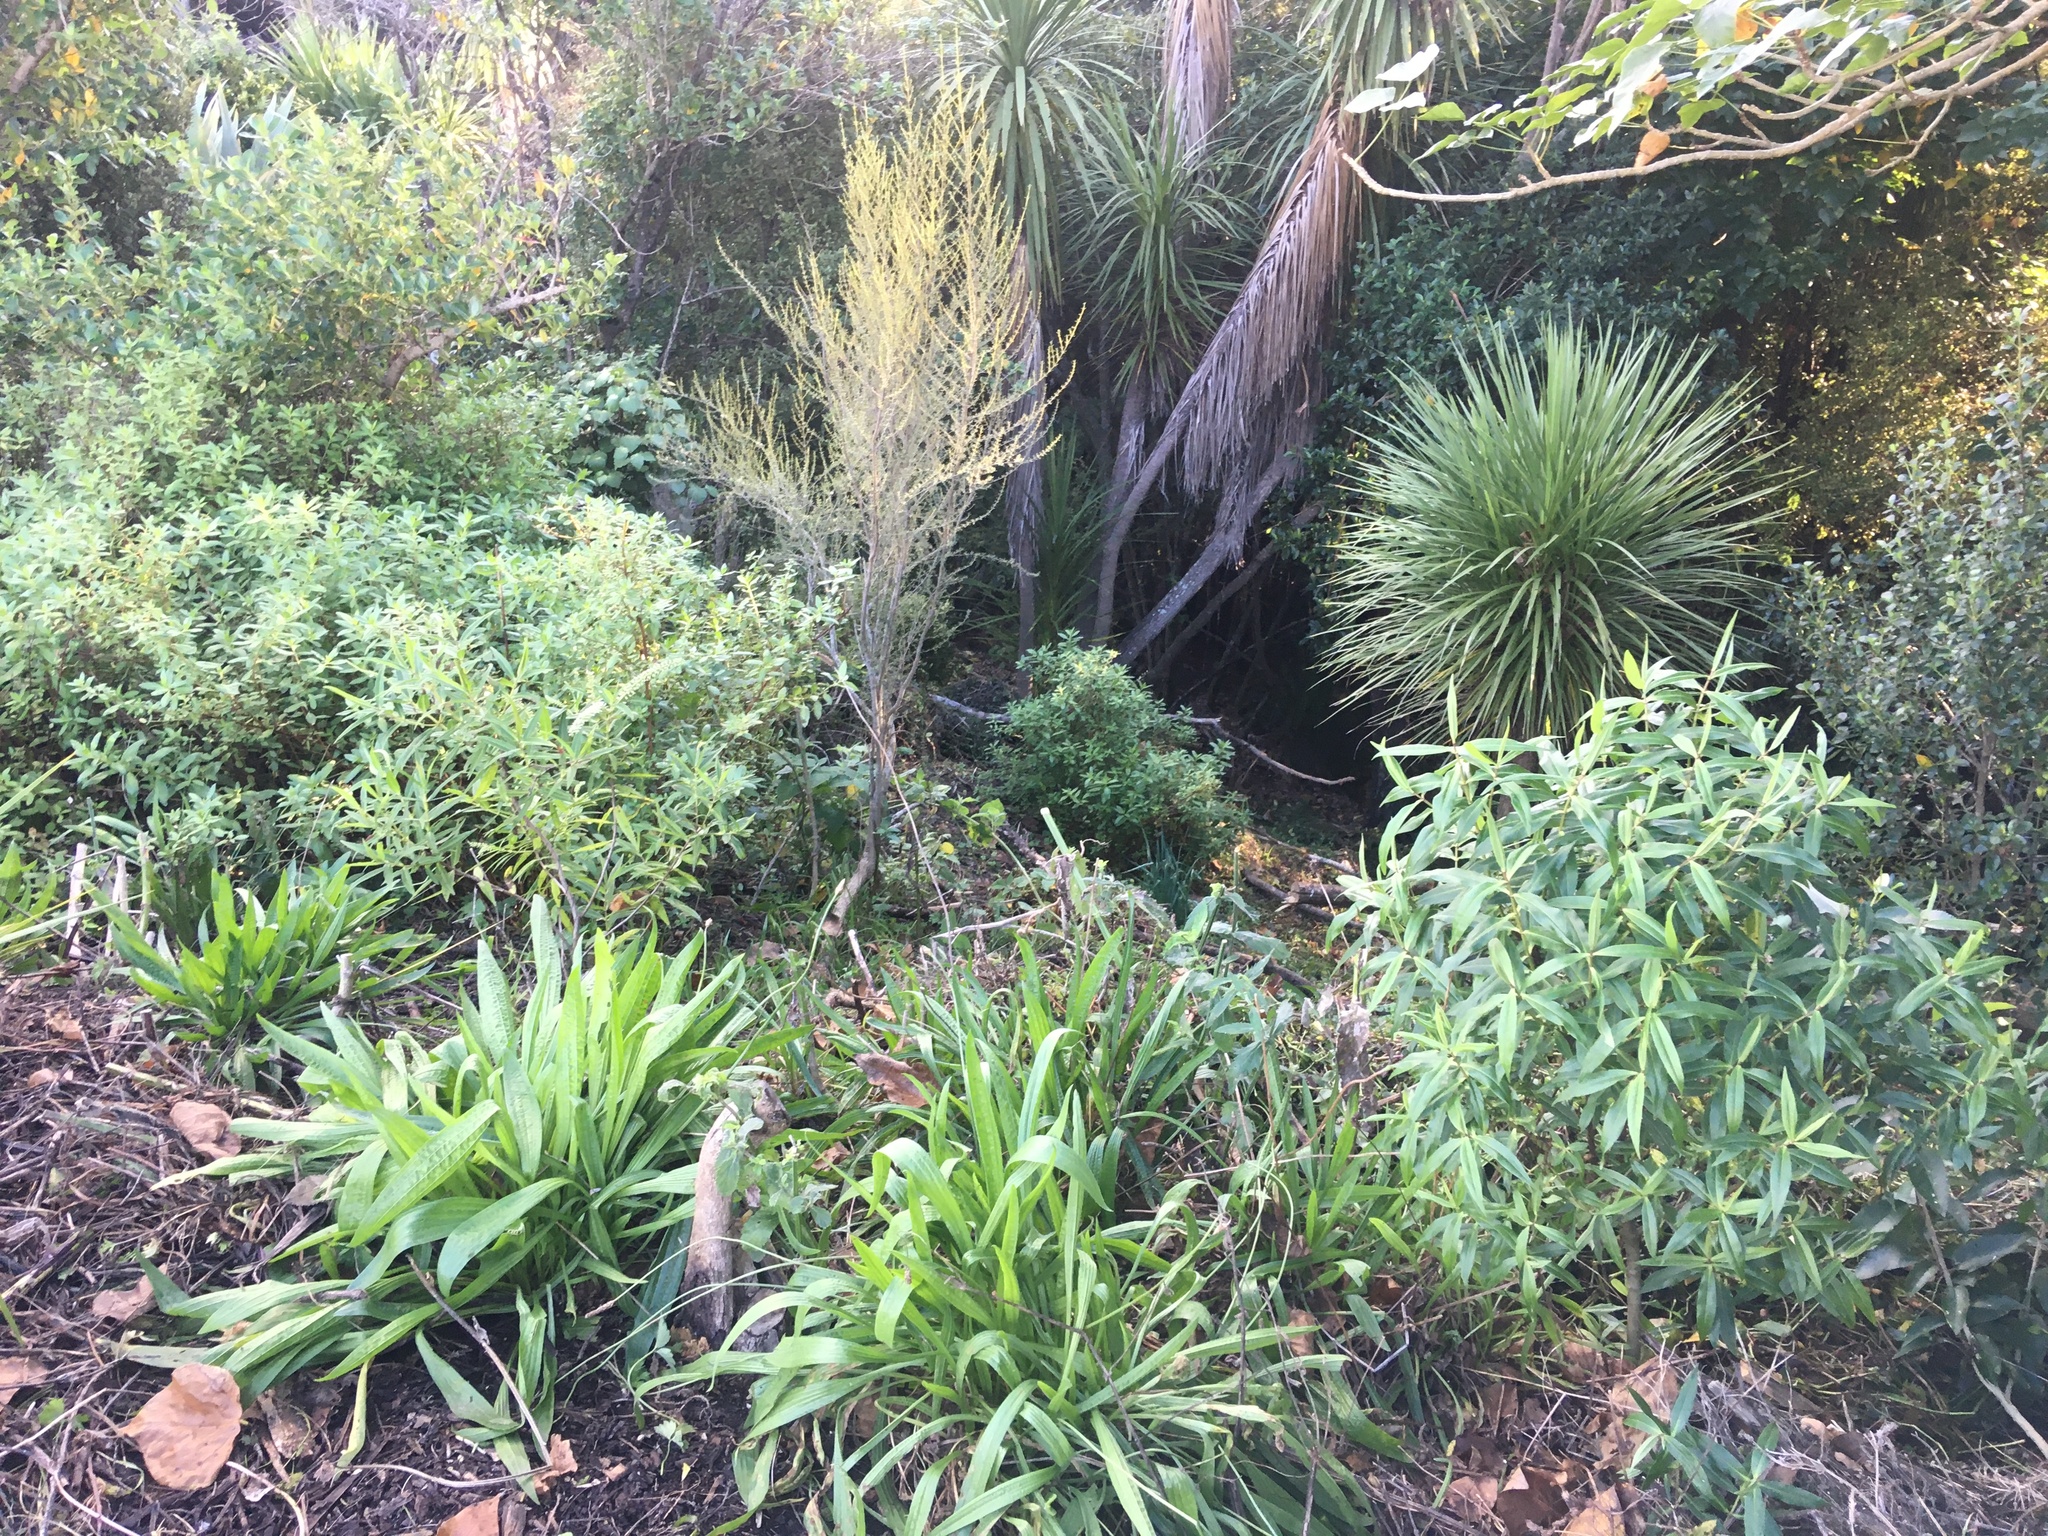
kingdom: Plantae
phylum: Tracheophyta
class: Magnoliopsida
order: Saxifragales
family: Haloragaceae
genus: Haloragis
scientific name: Haloragis erecta
